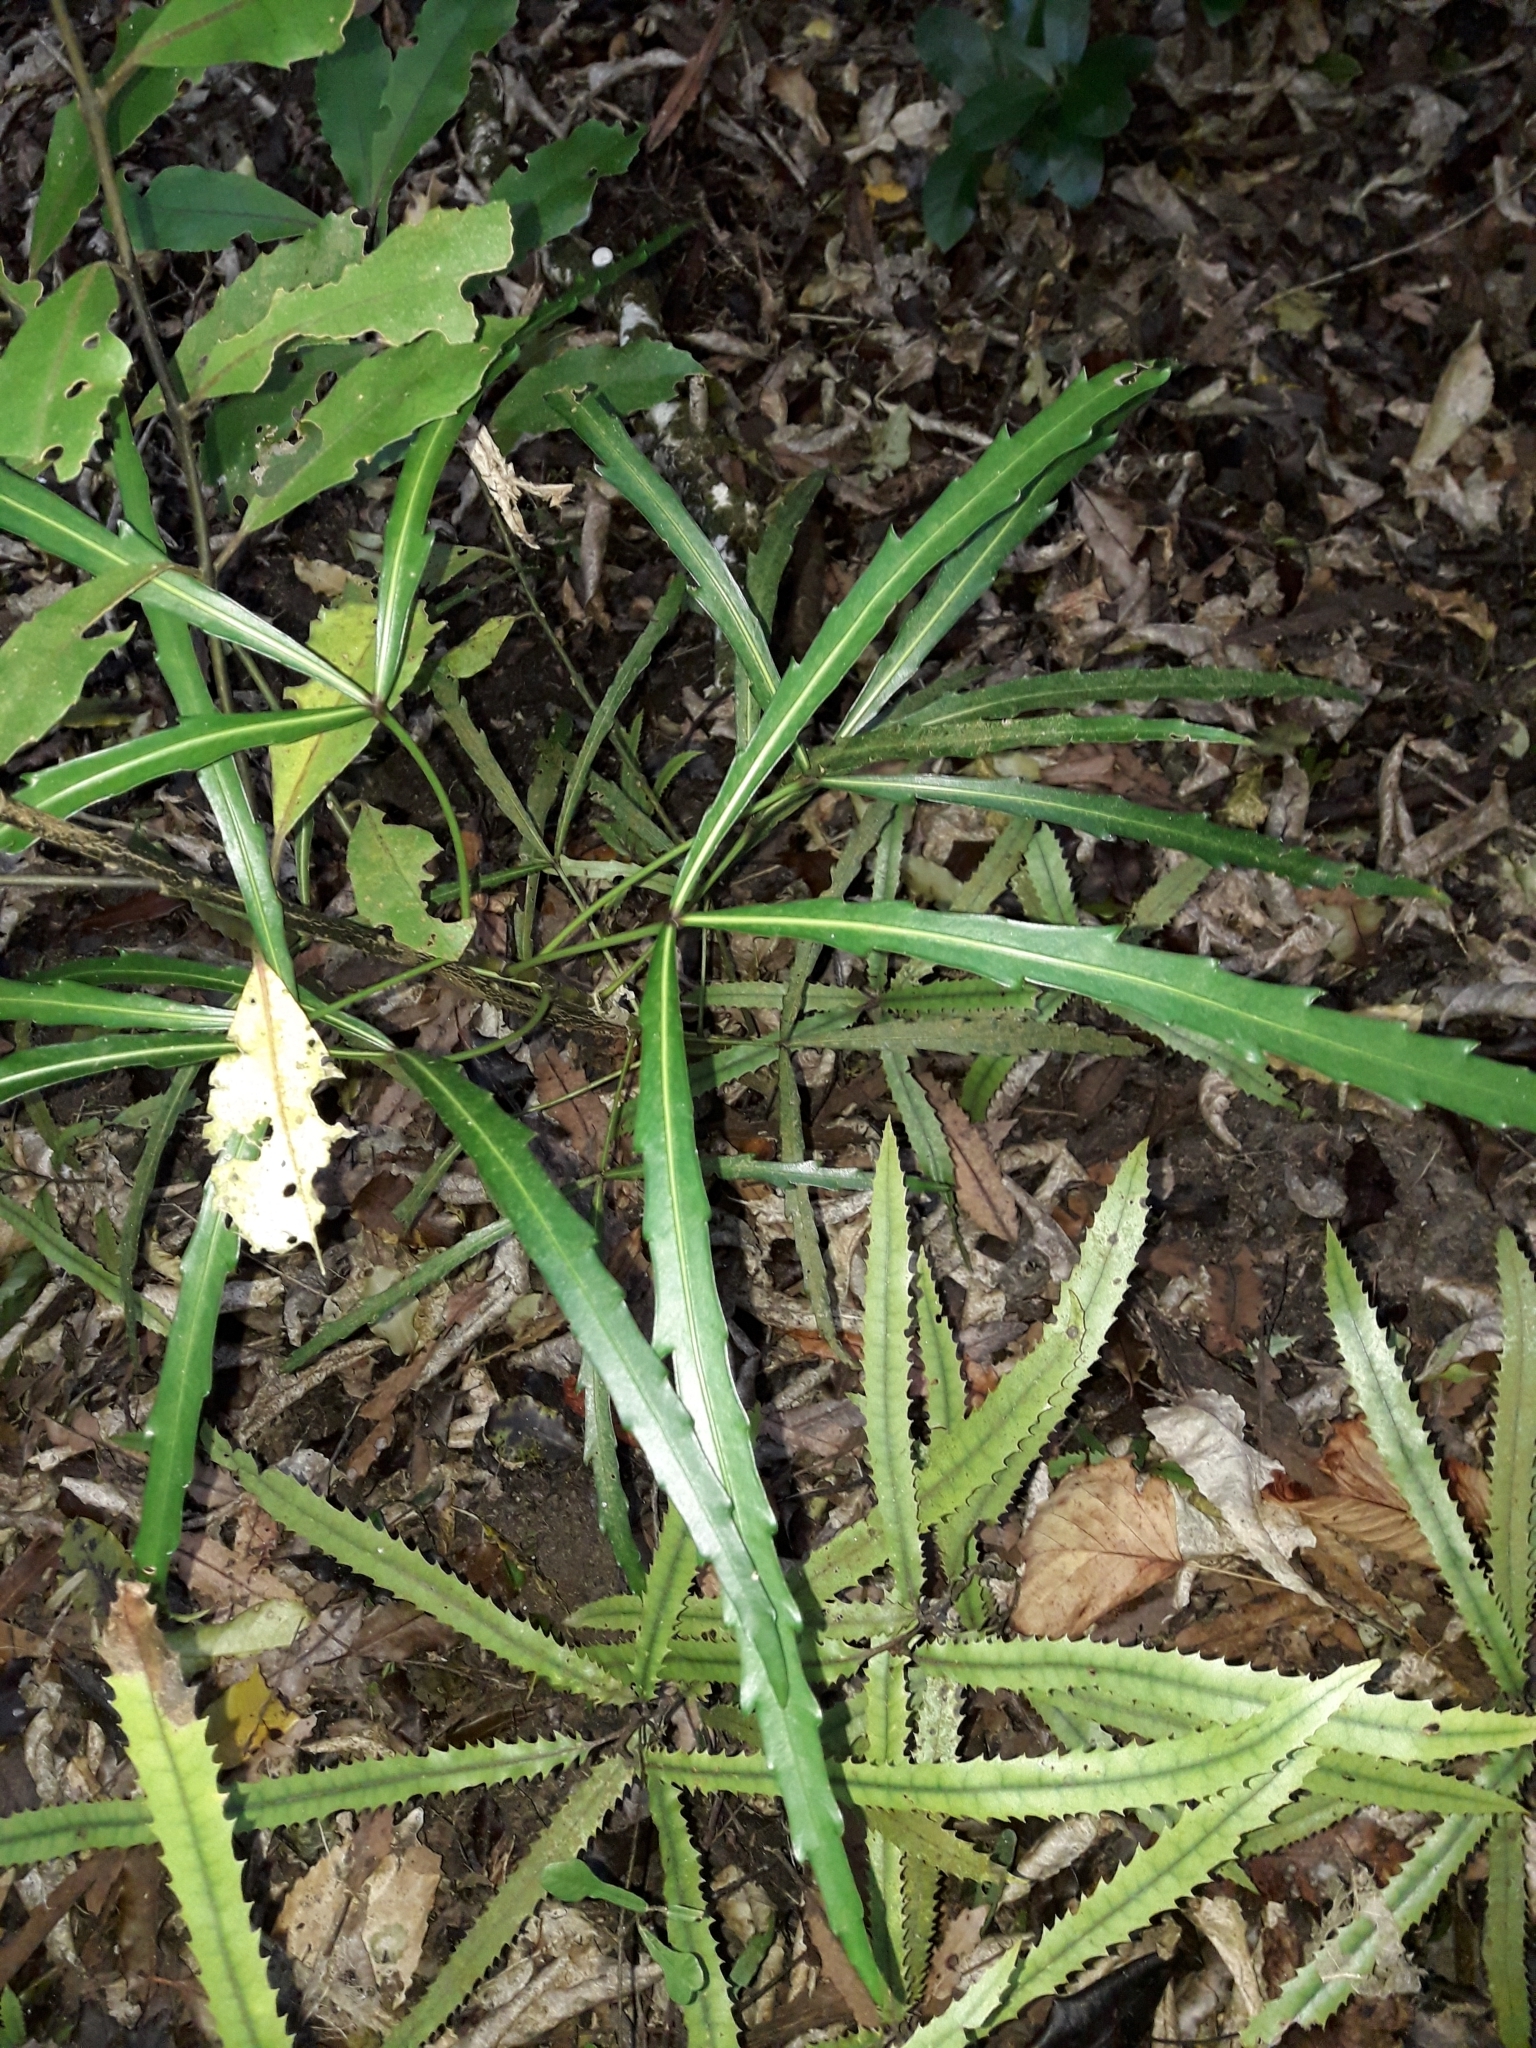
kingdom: Plantae
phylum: Tracheophyta
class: Magnoliopsida
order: Apiales
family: Araliaceae
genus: Pseudopanax
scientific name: Pseudopanax
